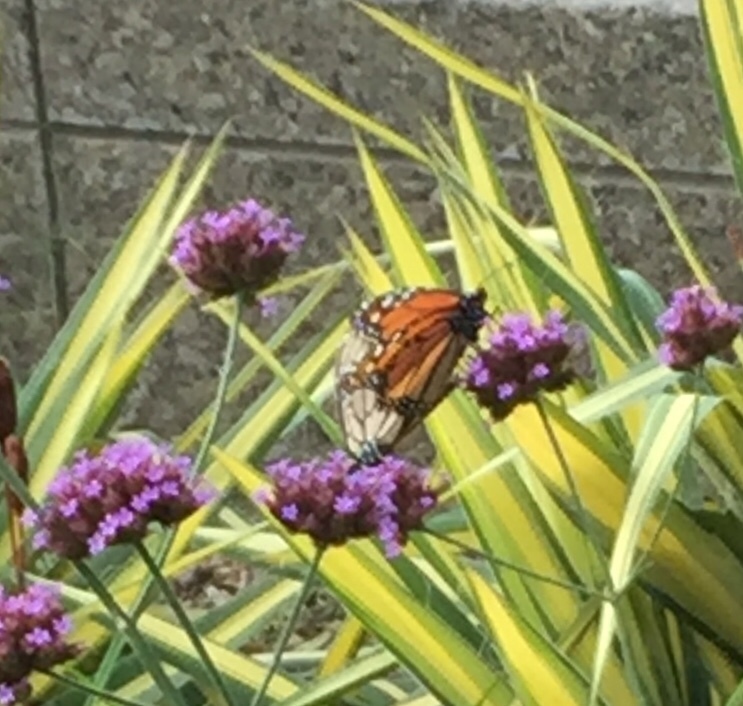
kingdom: Animalia
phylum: Arthropoda
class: Insecta
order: Lepidoptera
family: Nymphalidae
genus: Danaus
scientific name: Danaus plexippus
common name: Monarch
